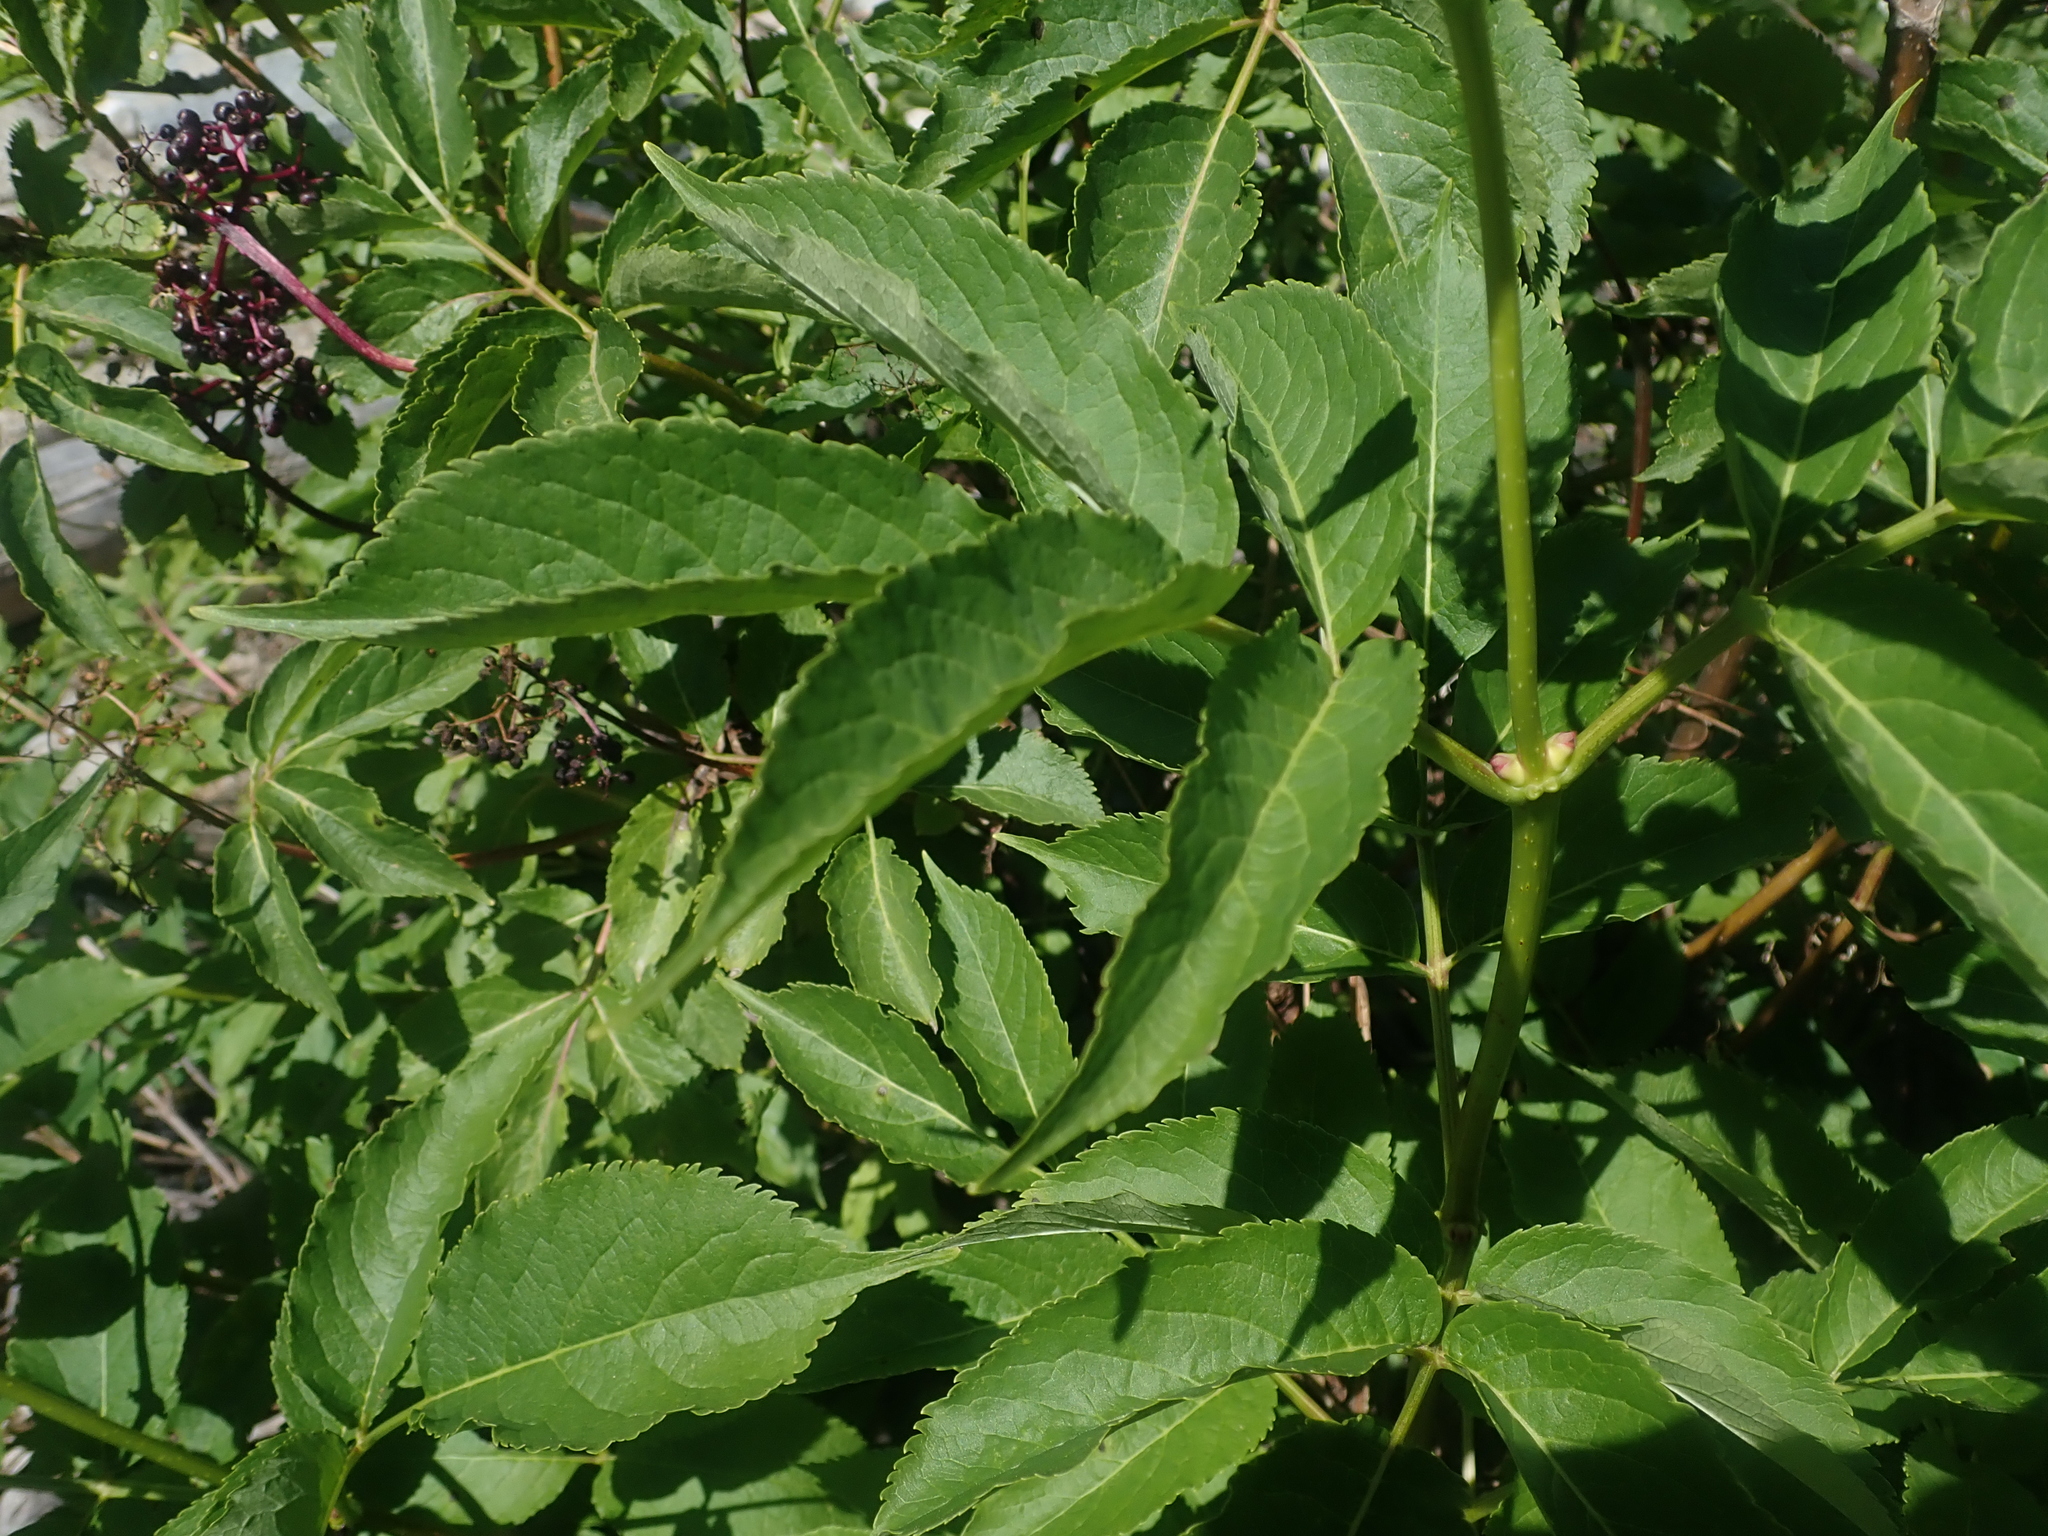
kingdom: Plantae
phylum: Tracheophyta
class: Magnoliopsida
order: Dipsacales
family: Viburnaceae
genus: Sambucus
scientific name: Sambucus racemosa
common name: Red-berried elder
